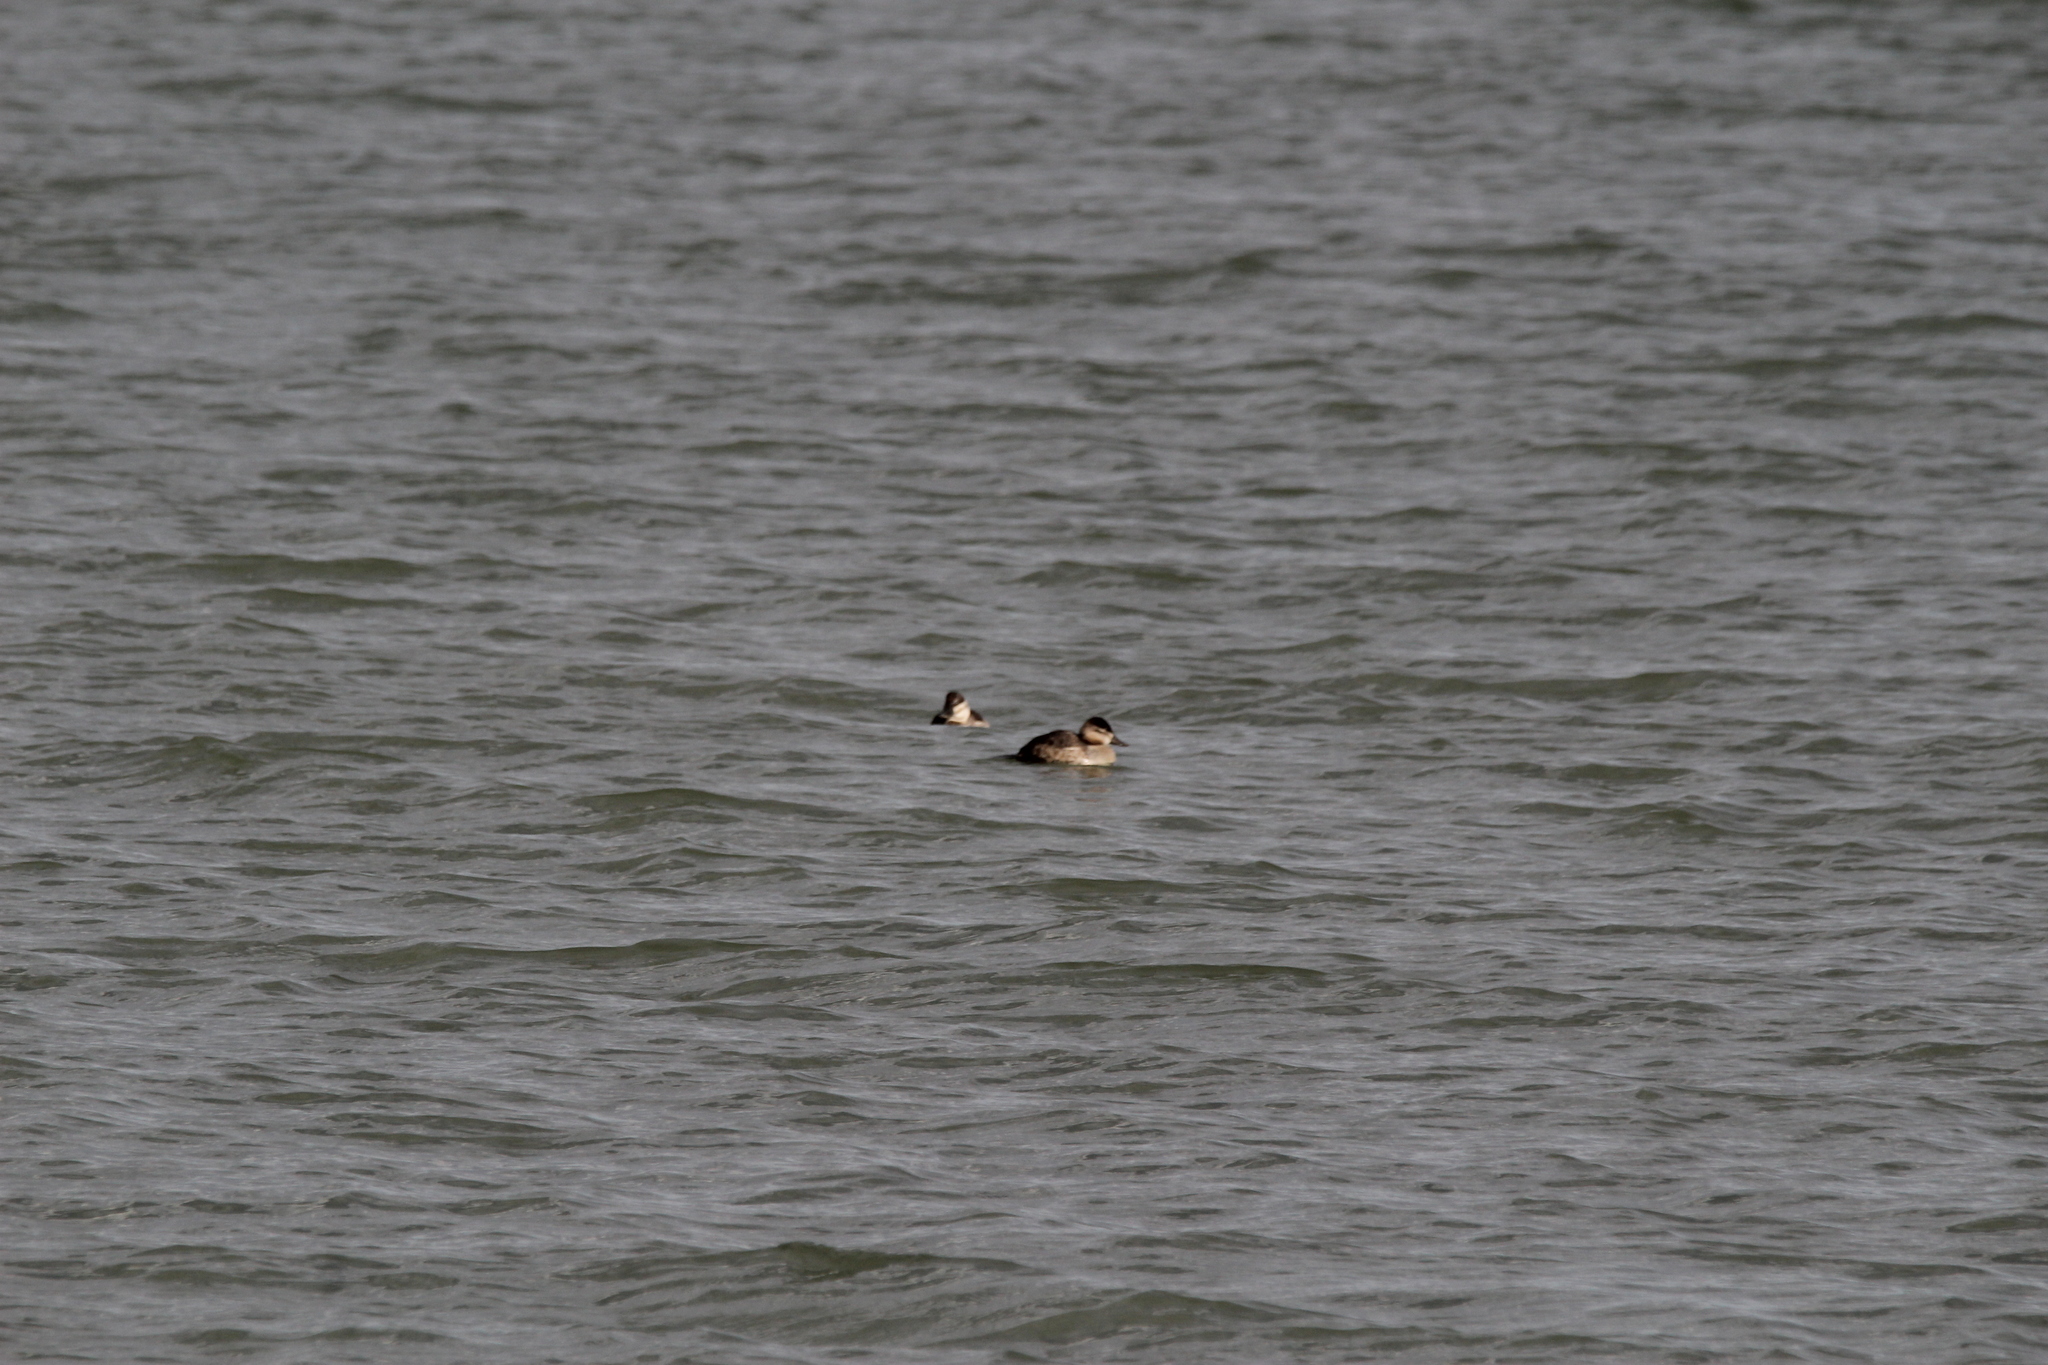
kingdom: Animalia
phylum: Chordata
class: Aves
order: Anseriformes
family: Anatidae
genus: Oxyura
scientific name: Oxyura jamaicensis
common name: Ruddy duck
